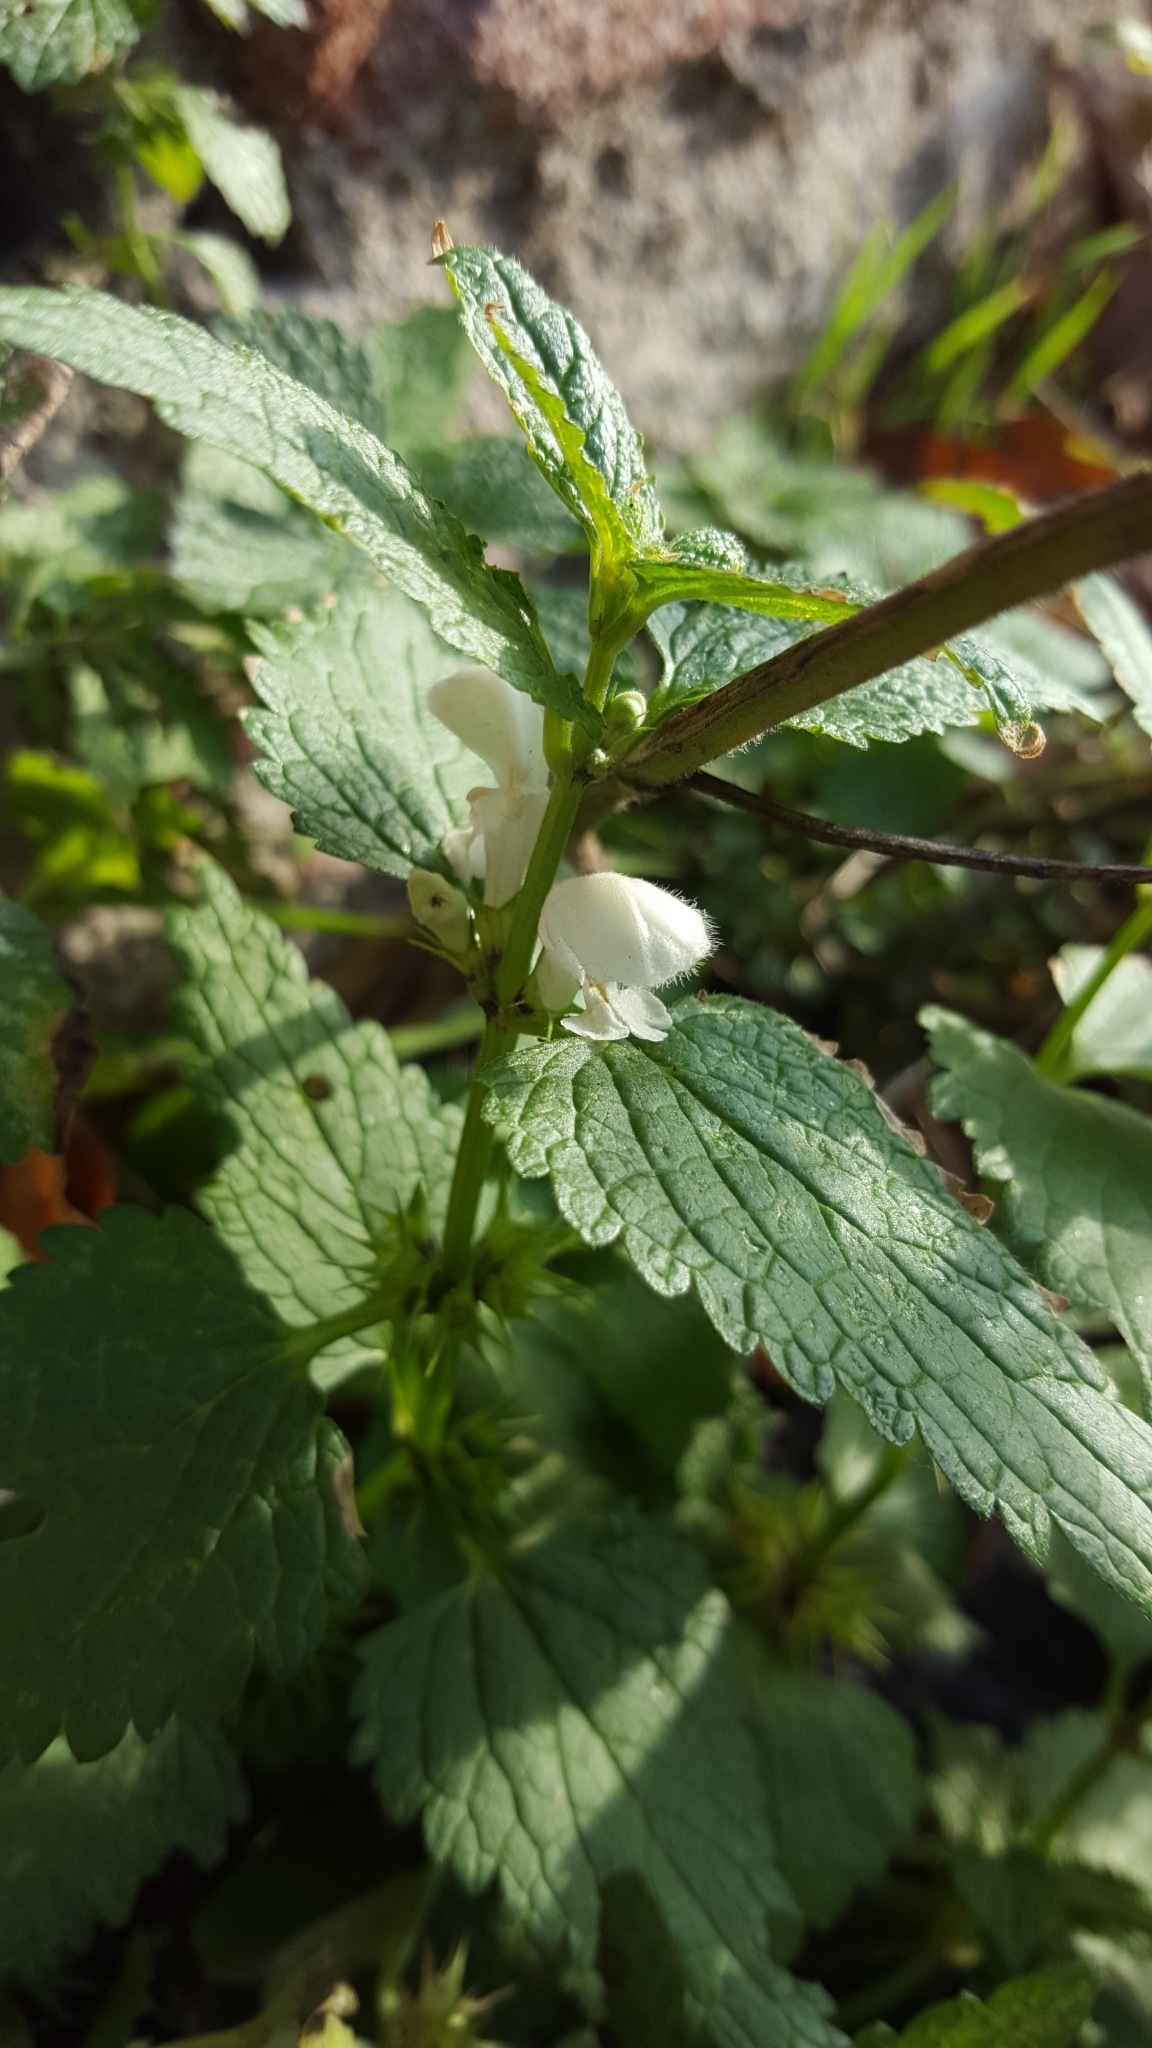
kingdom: Plantae
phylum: Tracheophyta
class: Magnoliopsida
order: Lamiales
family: Lamiaceae
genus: Lamium
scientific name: Lamium album
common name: White dead-nettle
